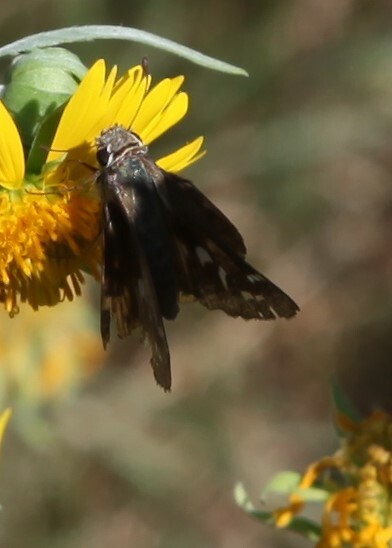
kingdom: Animalia
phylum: Arthropoda
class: Insecta
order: Lepidoptera
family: Hesperiidae
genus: Calpodes
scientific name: Calpodes ethlius
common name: Brazilian skipper
